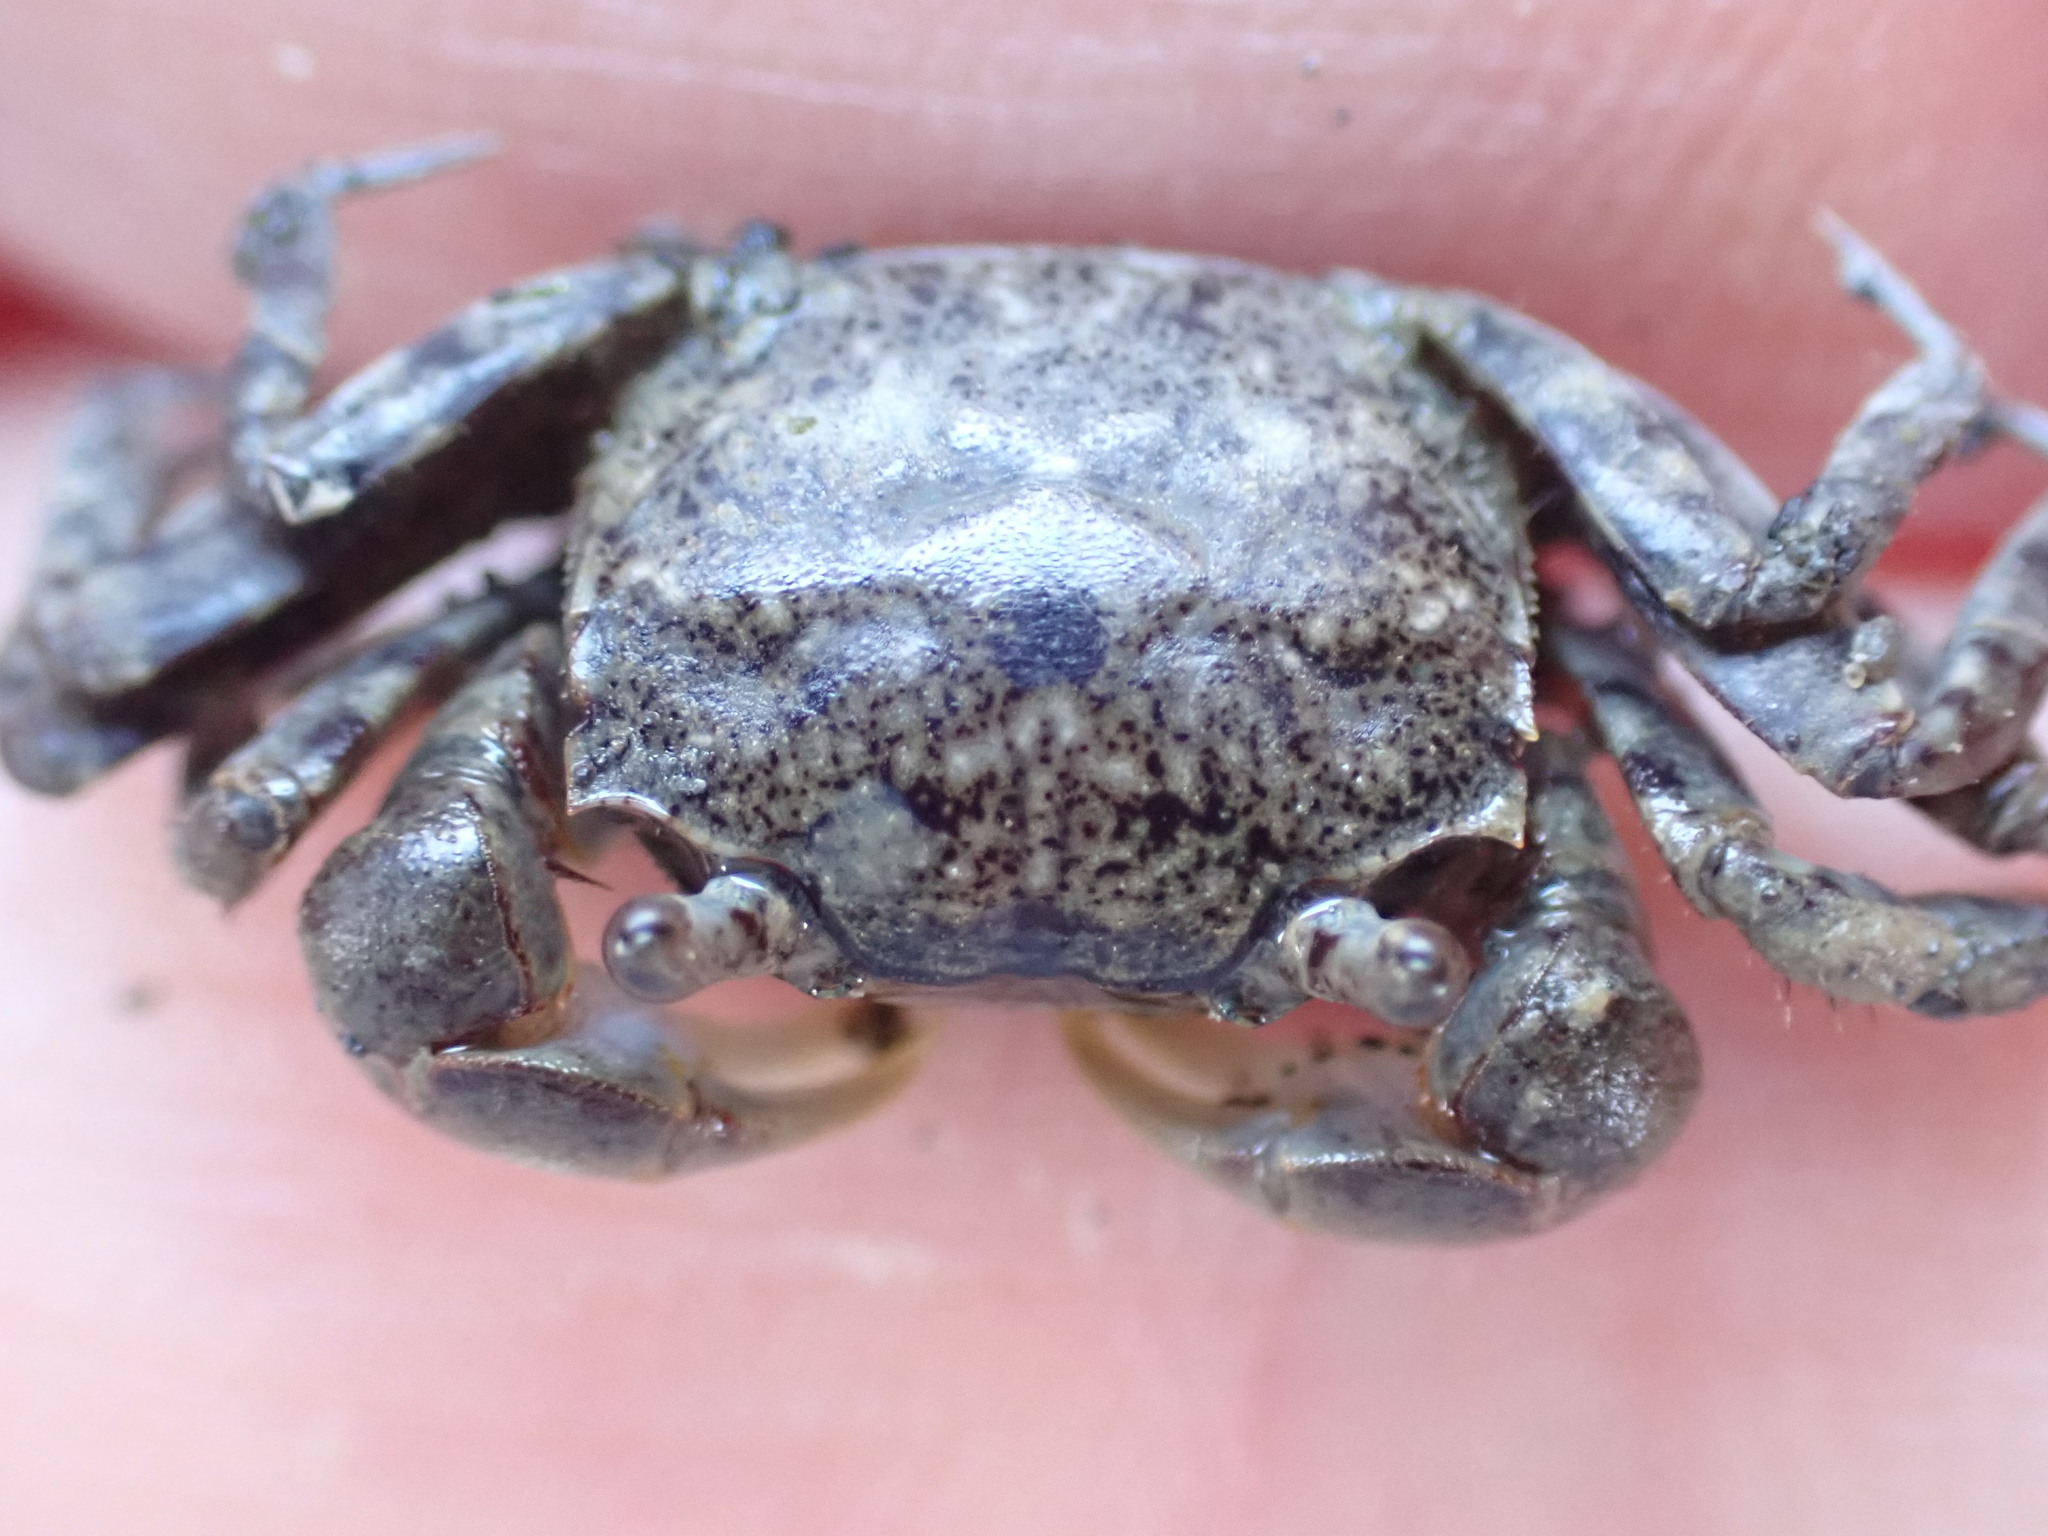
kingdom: Animalia
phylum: Arthropoda
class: Malacostraca
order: Decapoda
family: Varunidae
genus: Austrohelice
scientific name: Austrohelice crassa
